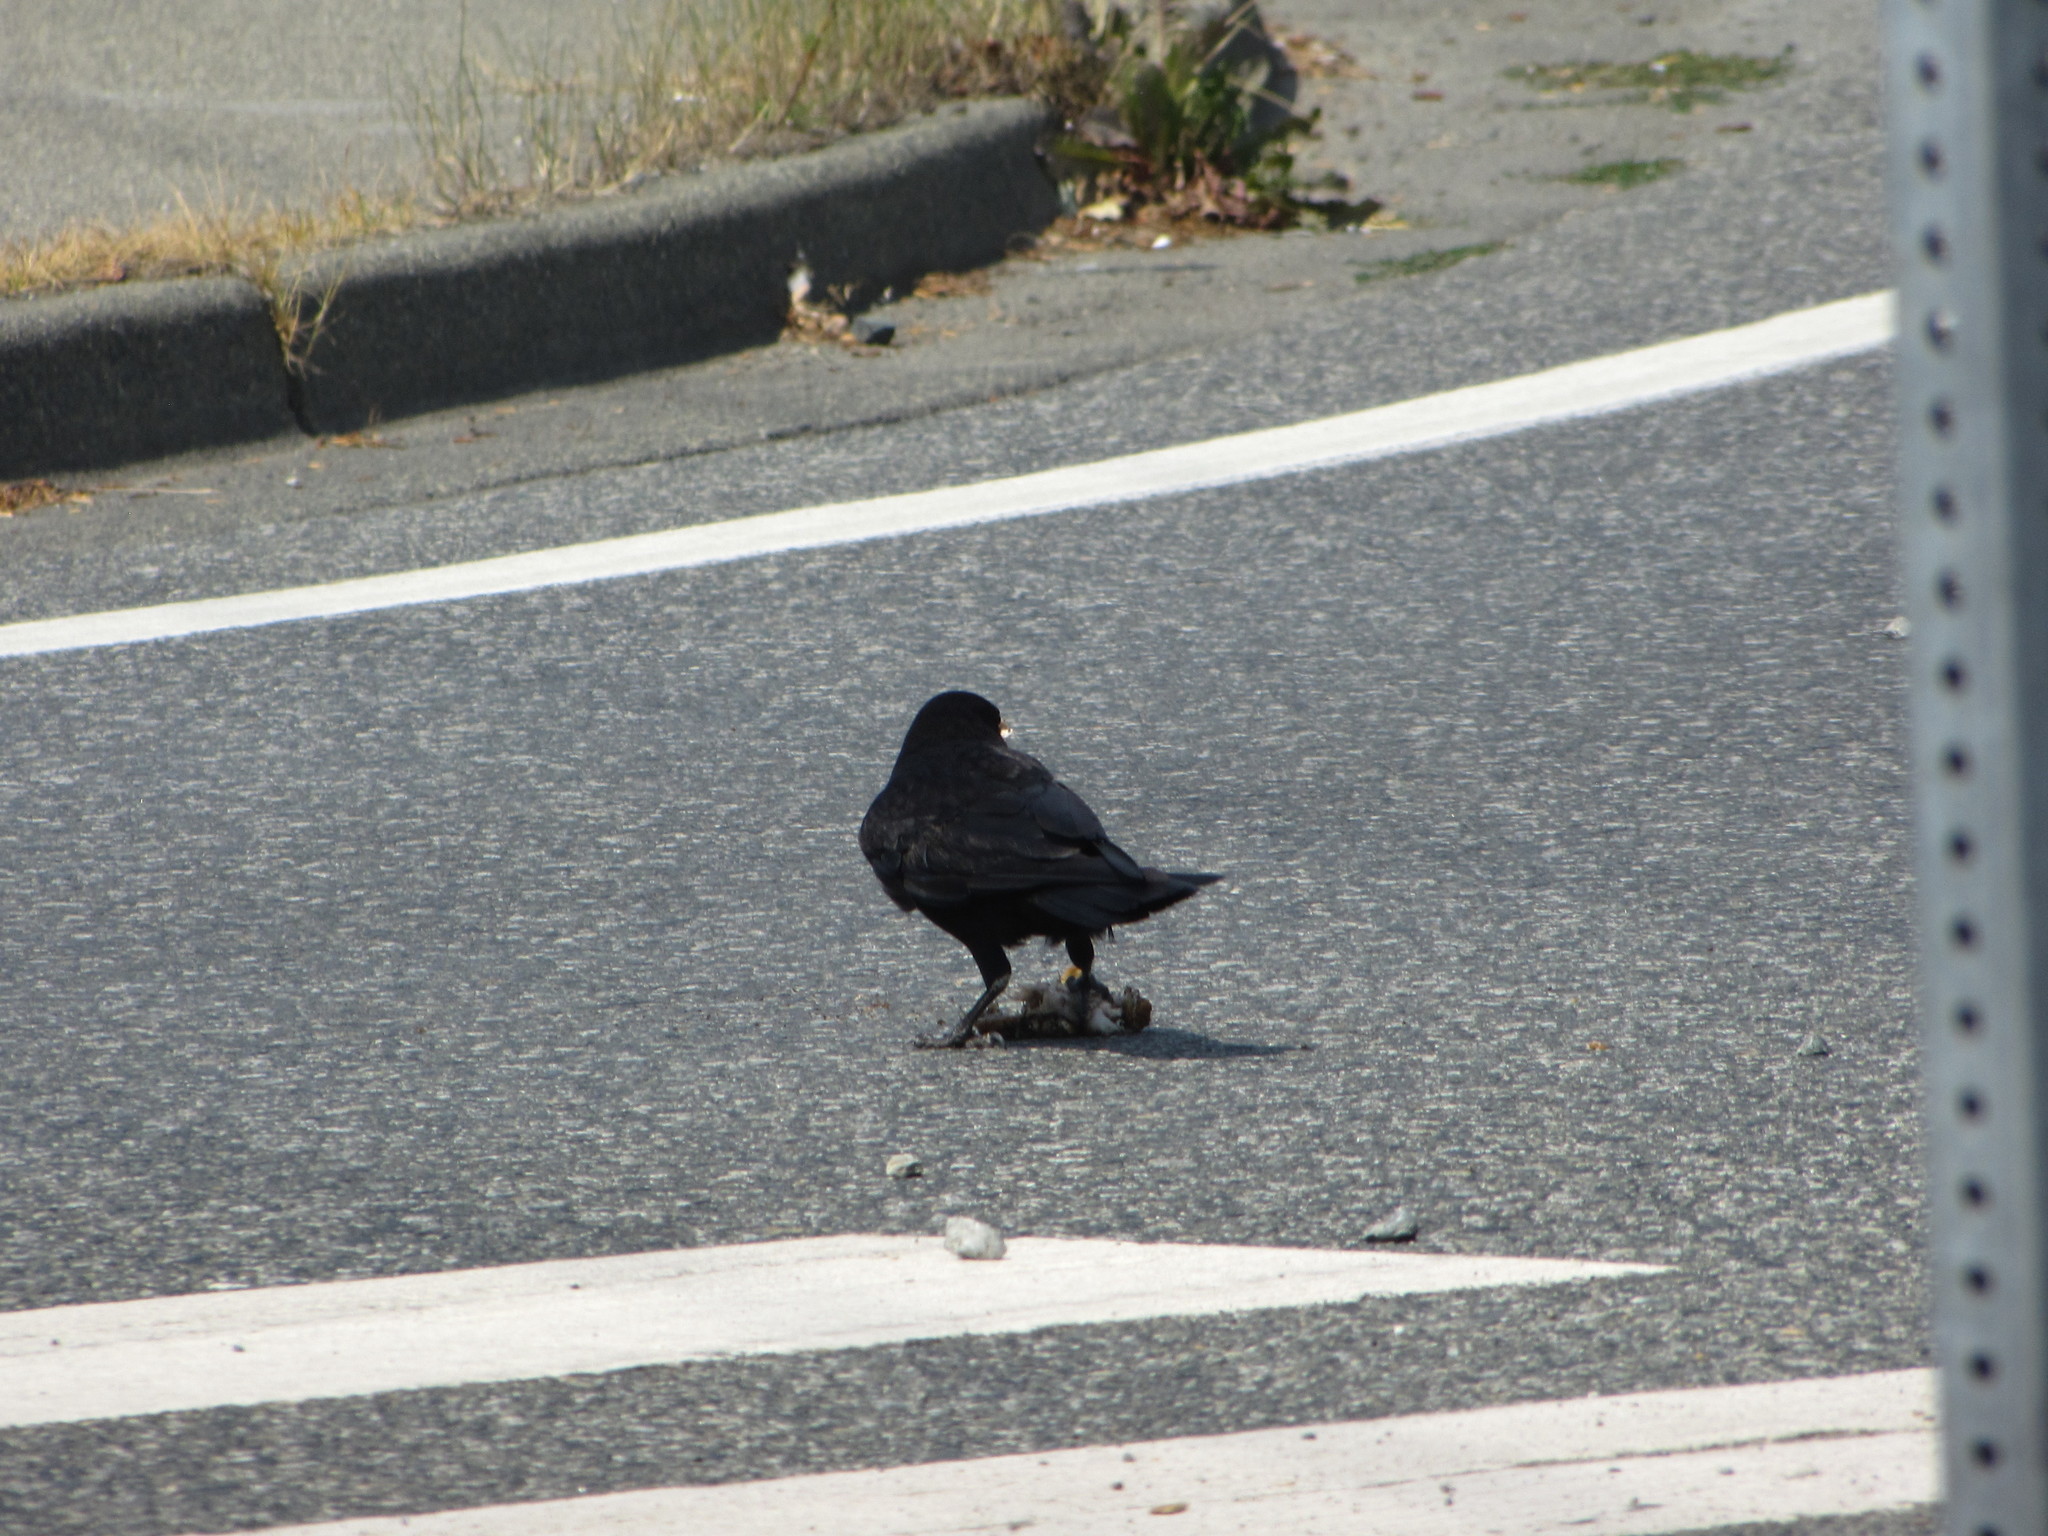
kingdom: Animalia
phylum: Chordata
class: Aves
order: Passeriformes
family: Corvidae
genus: Corvus
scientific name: Corvus brachyrhynchos
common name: American crow
